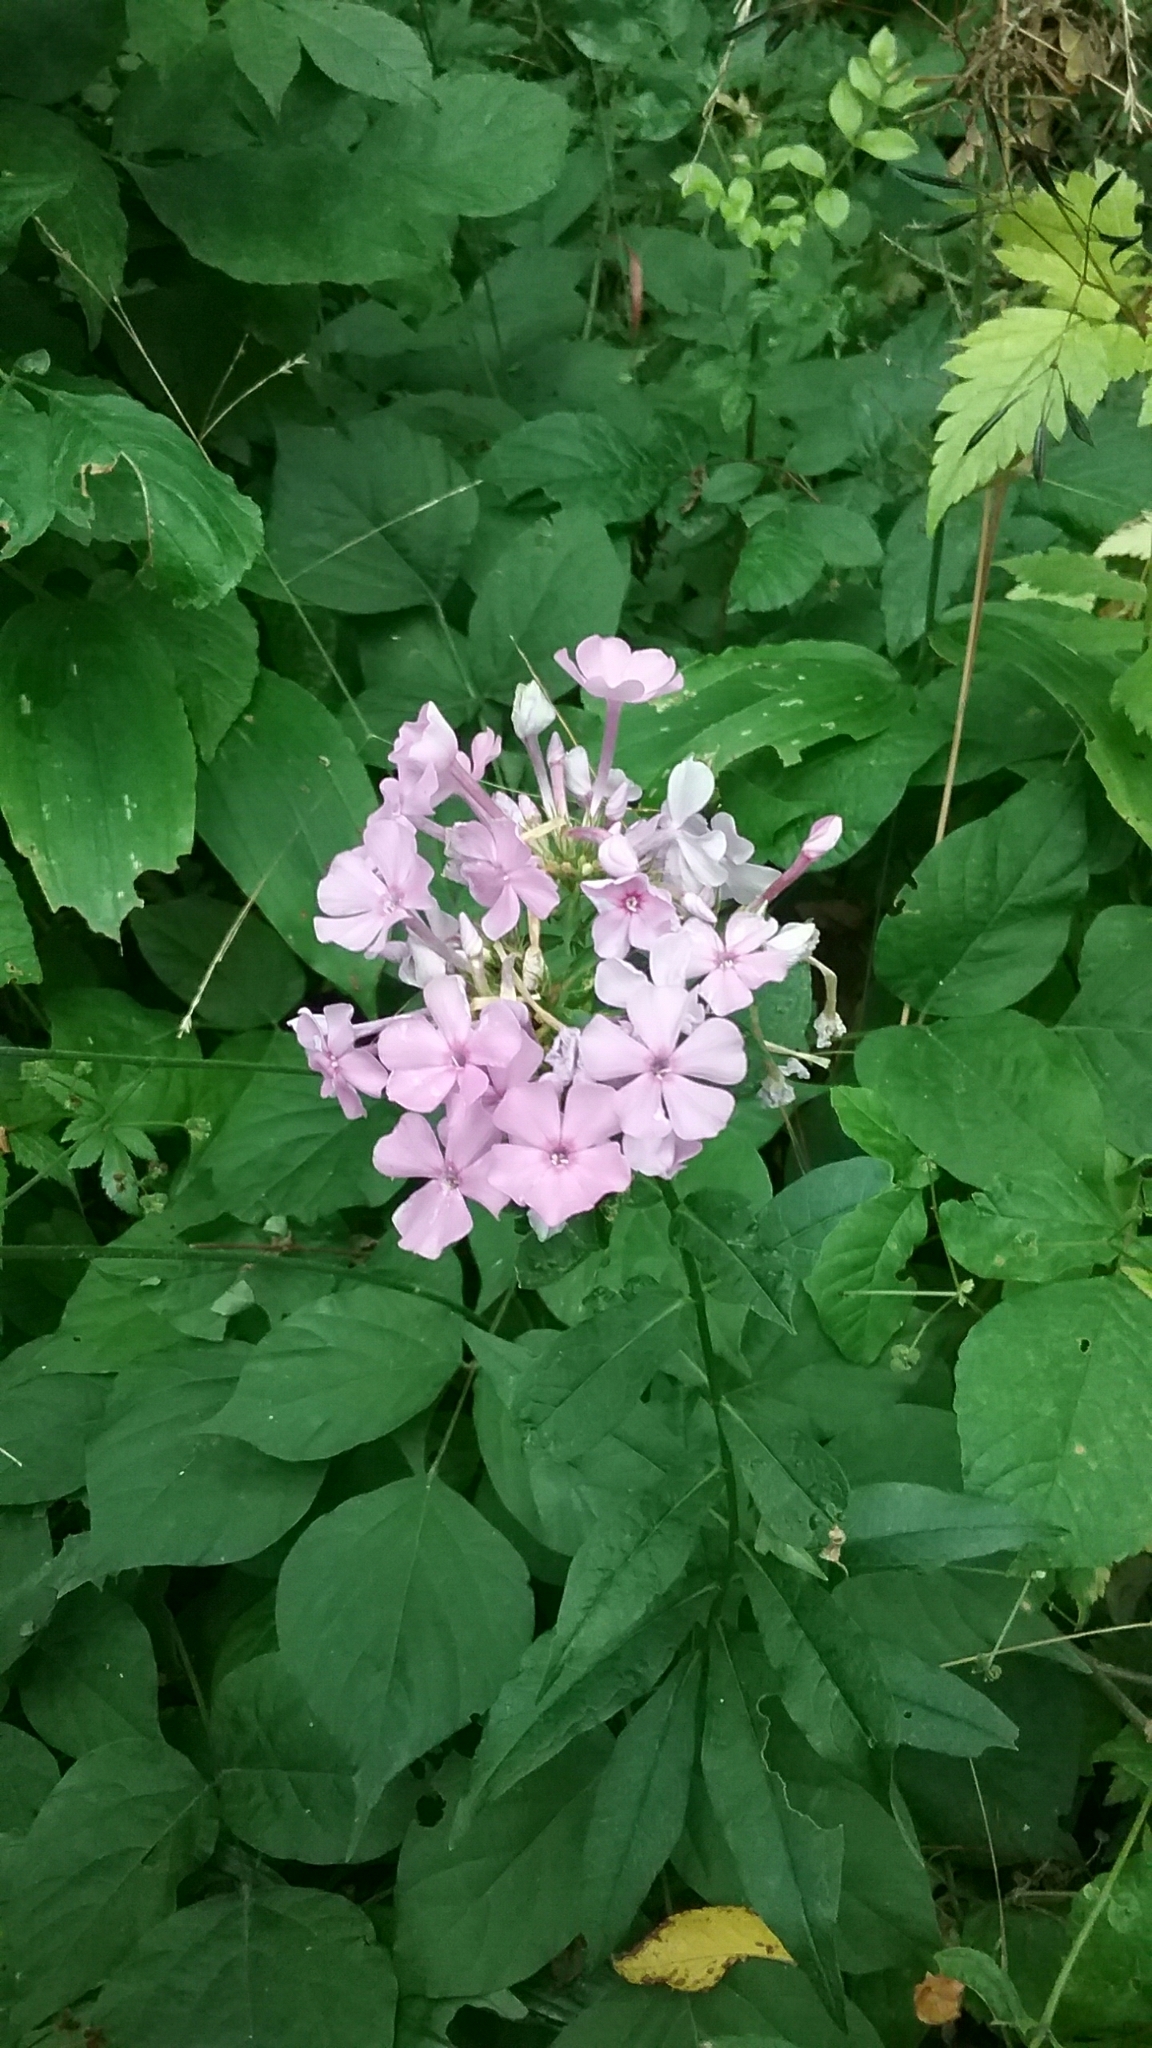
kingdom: Plantae
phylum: Tracheophyta
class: Magnoliopsida
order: Ericales
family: Polemoniaceae
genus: Phlox
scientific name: Phlox paniculata
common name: Fall phlox
